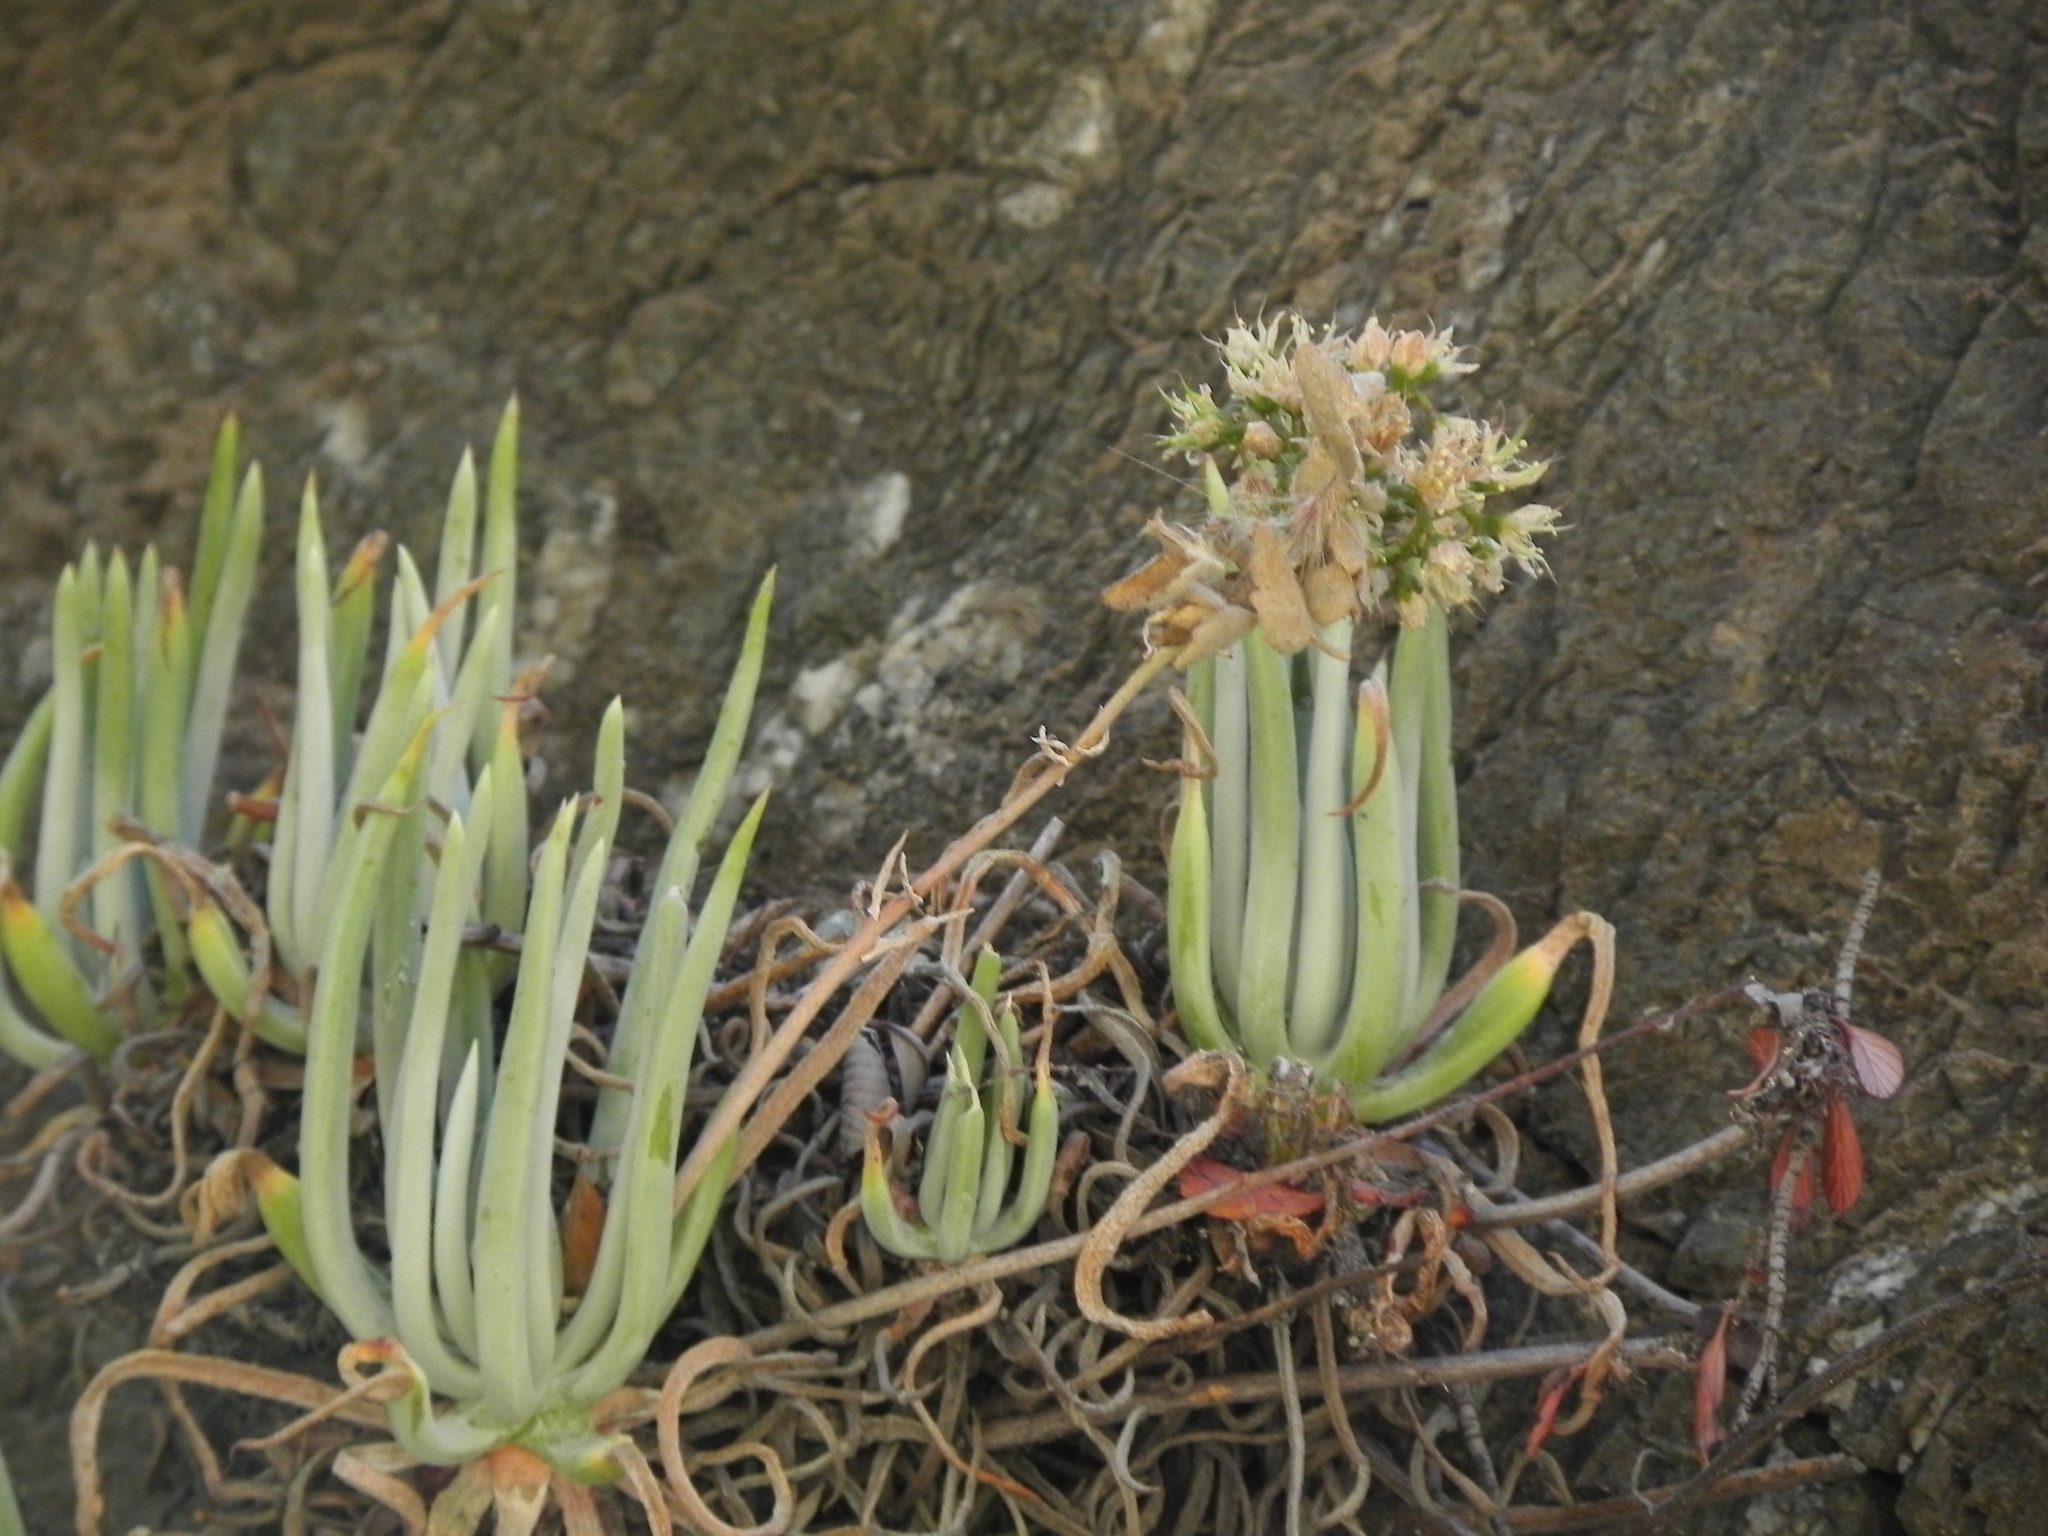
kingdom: Plantae
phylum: Tracheophyta
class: Magnoliopsida
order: Saxifragales
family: Crassulaceae
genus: Dudleya
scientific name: Dudleya densiflora
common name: San gabriel mountains dudleya
